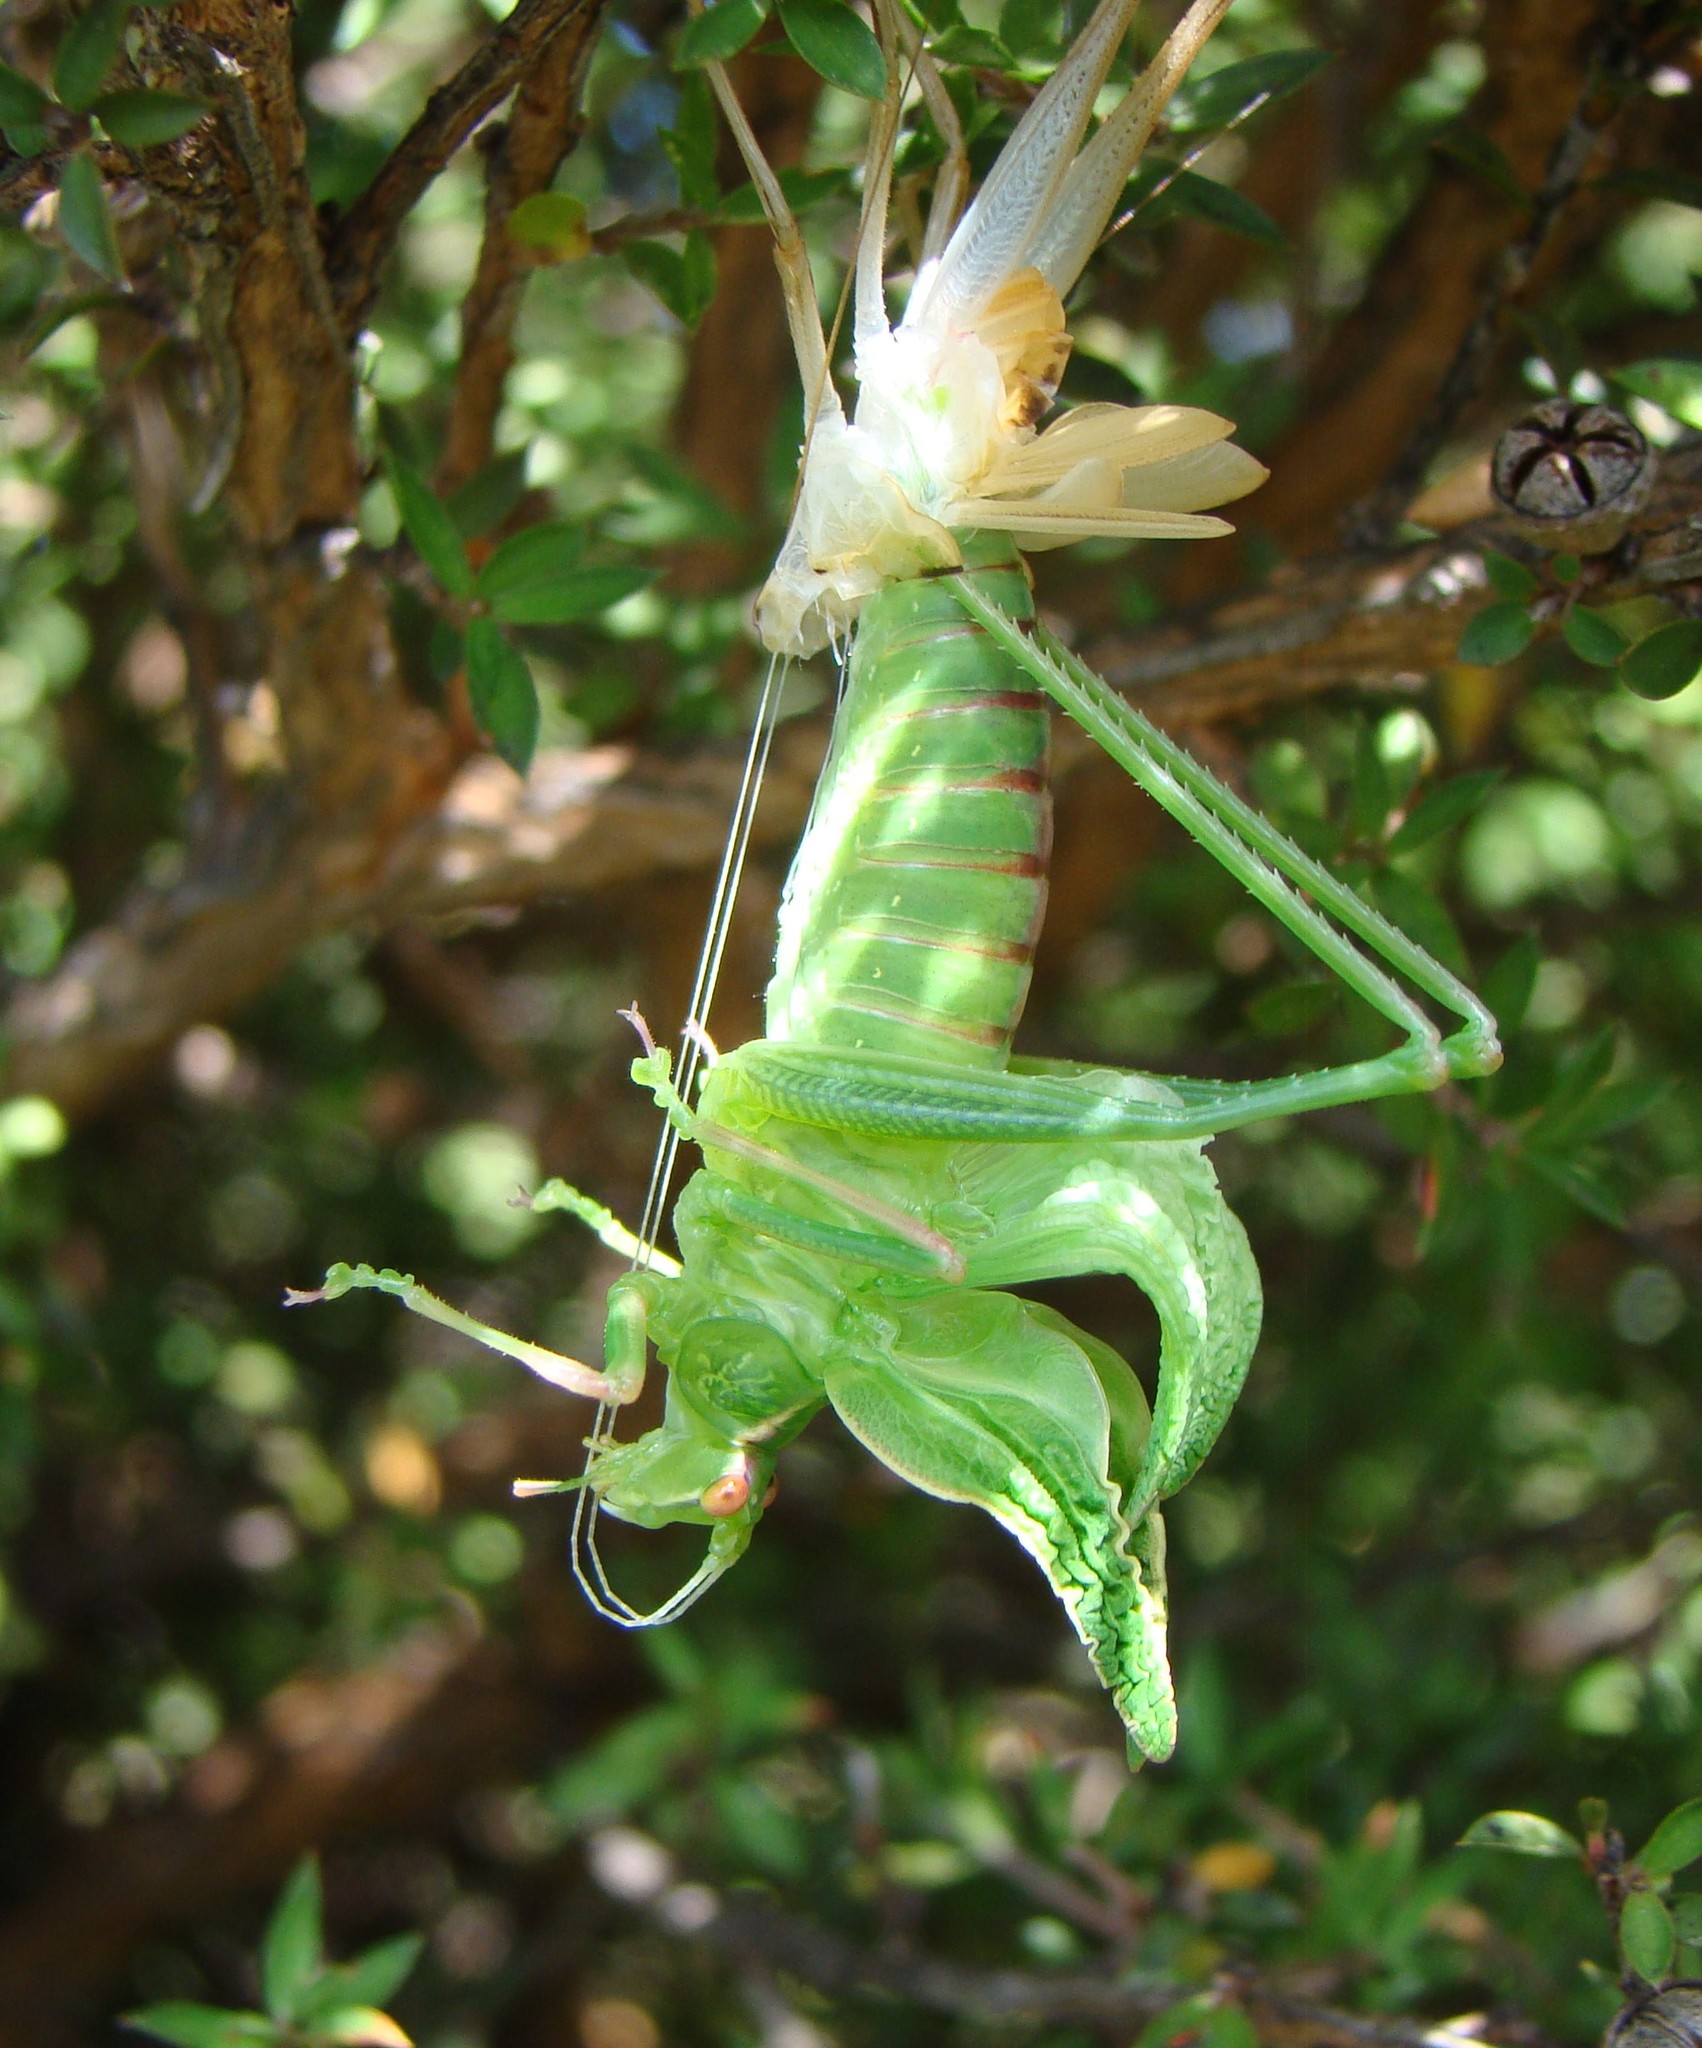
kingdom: Animalia
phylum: Arthropoda
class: Insecta
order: Orthoptera
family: Tettigoniidae
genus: Caedicia
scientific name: Caedicia simplex
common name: Common garden katydid
